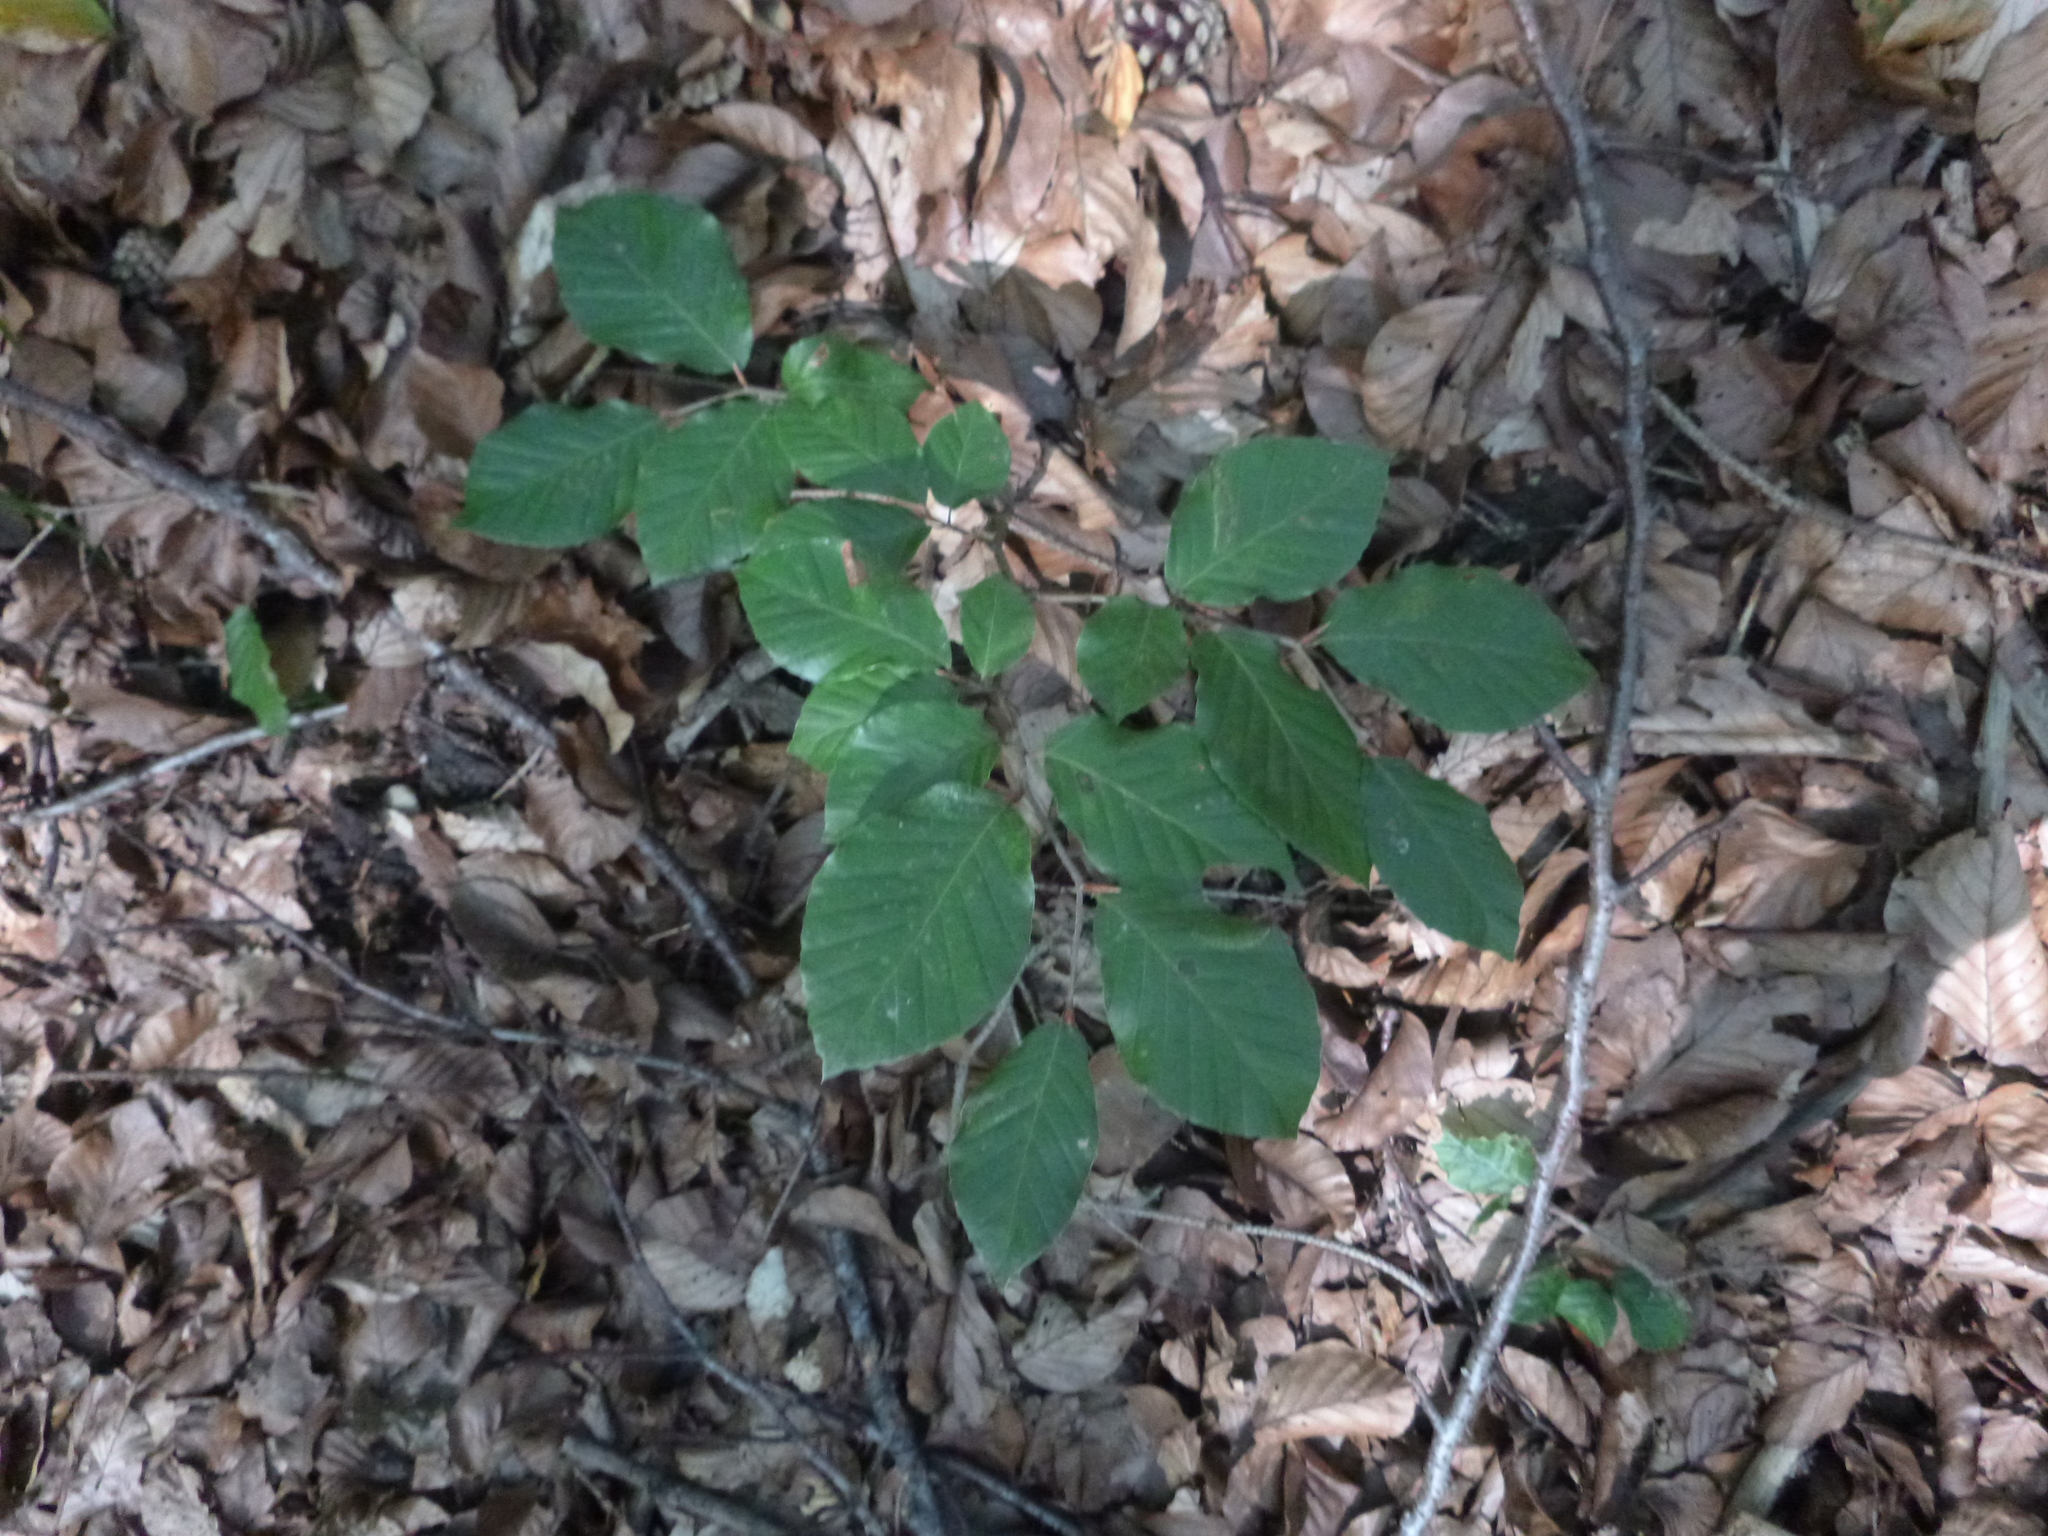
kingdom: Plantae
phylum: Tracheophyta
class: Magnoliopsida
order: Fagales
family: Fagaceae
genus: Fagus
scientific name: Fagus sylvatica
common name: Beech
